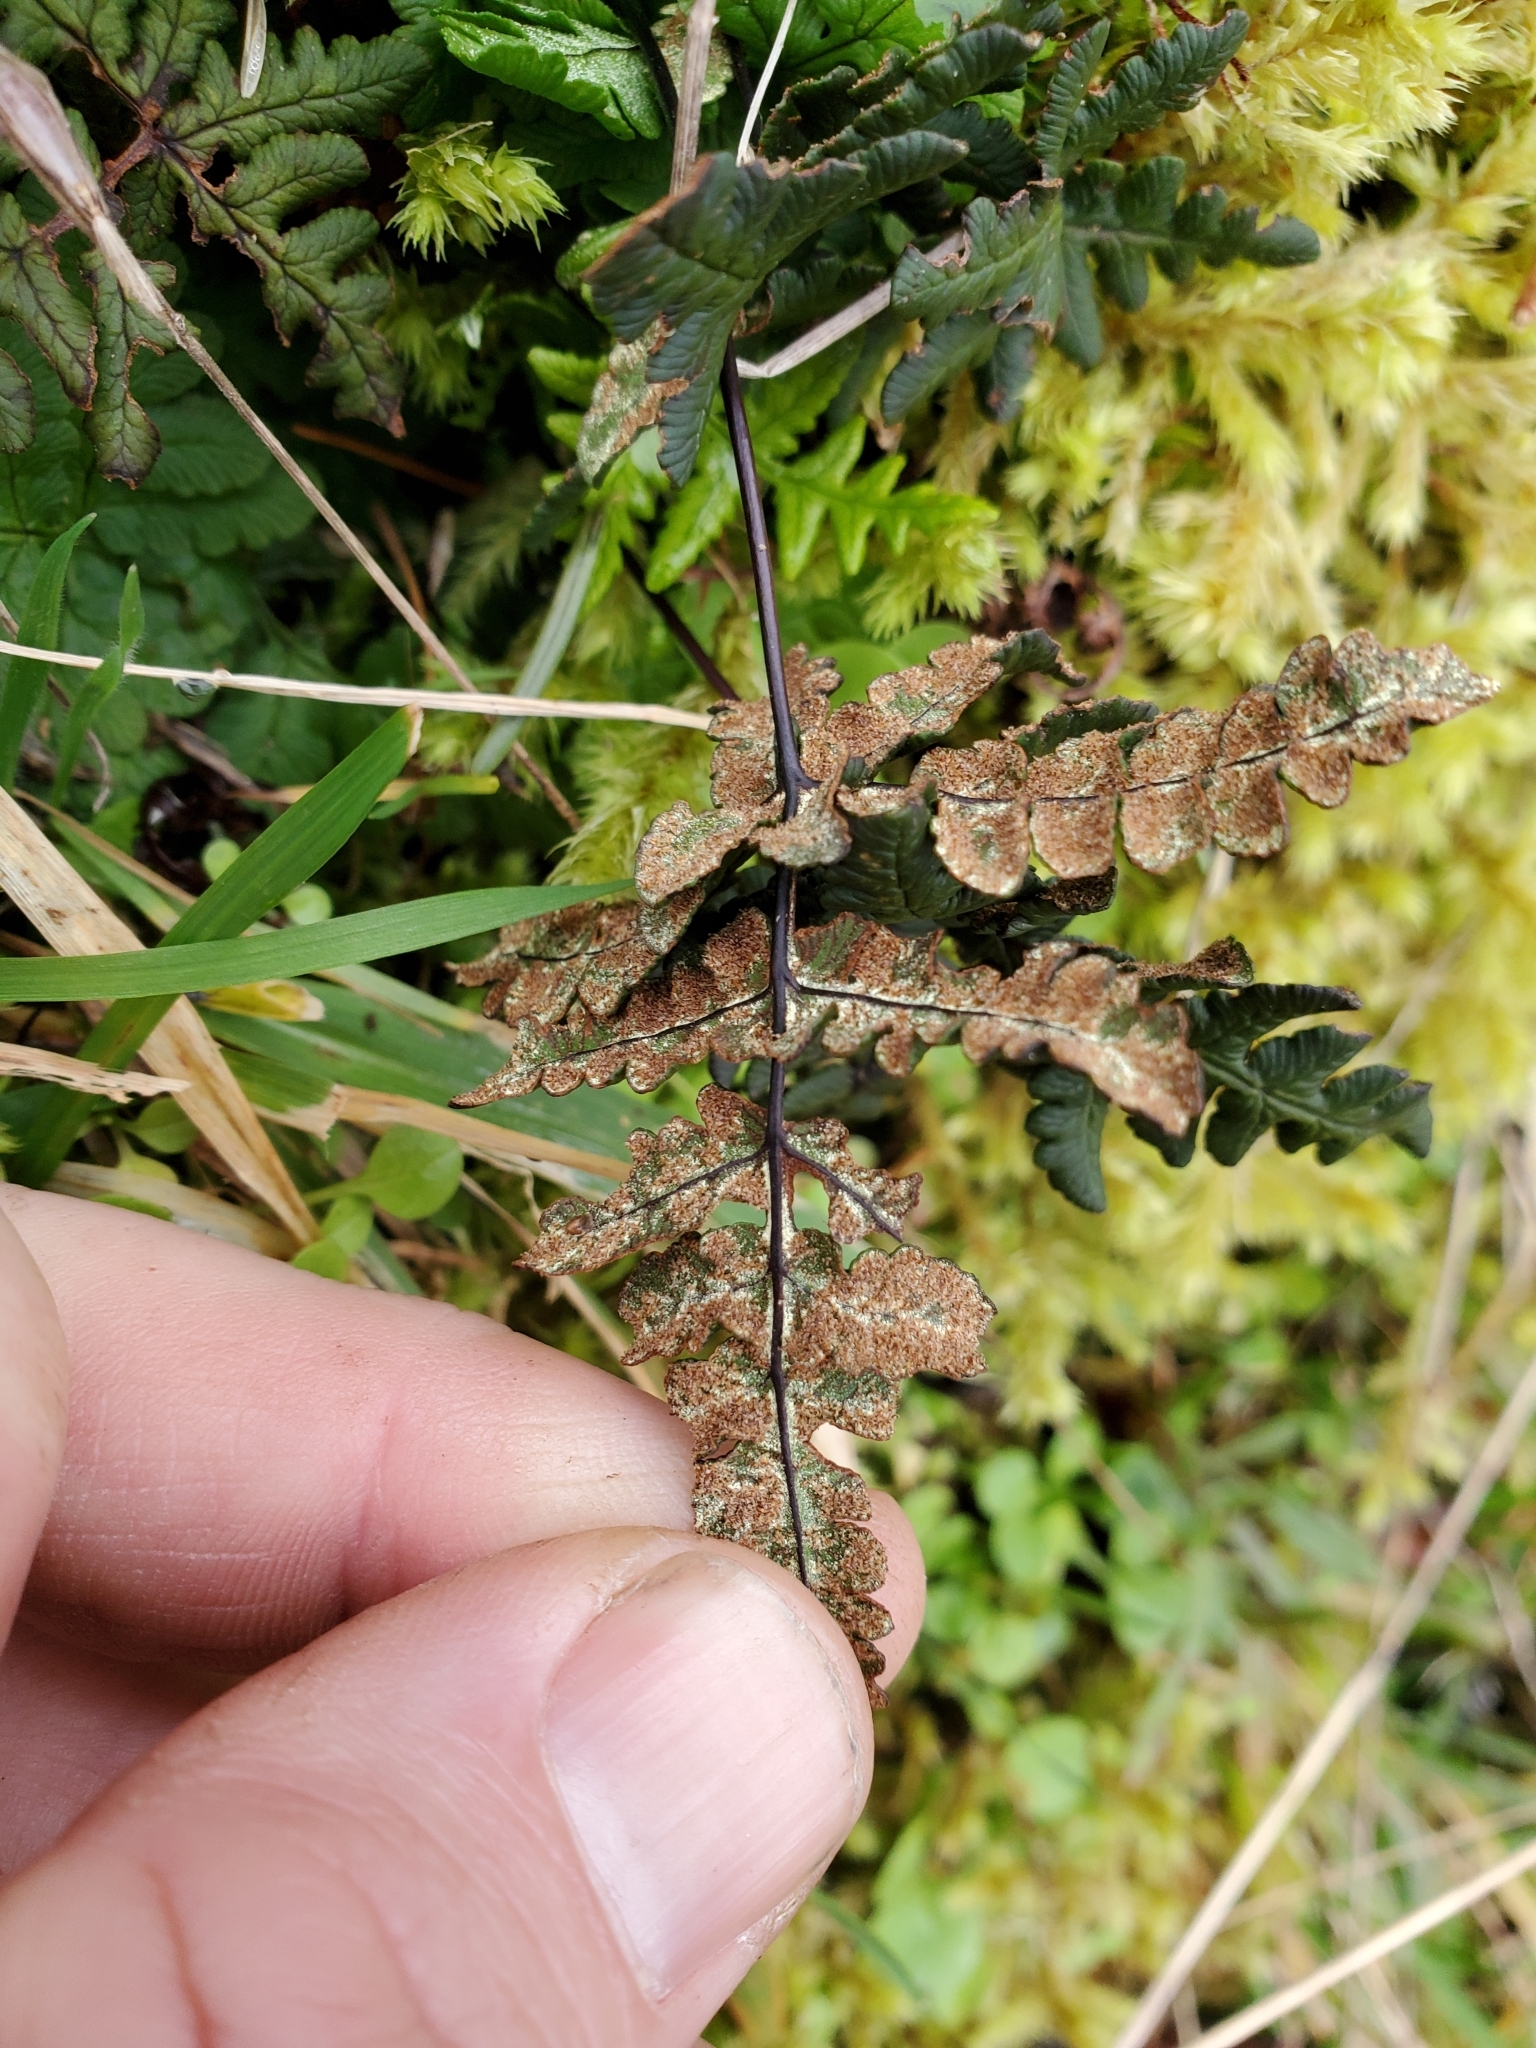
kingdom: Plantae
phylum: Tracheophyta
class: Polypodiopsida
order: Polypodiales
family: Pteridaceae
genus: Pentagramma
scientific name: Pentagramma triangularis
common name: Gold fern
